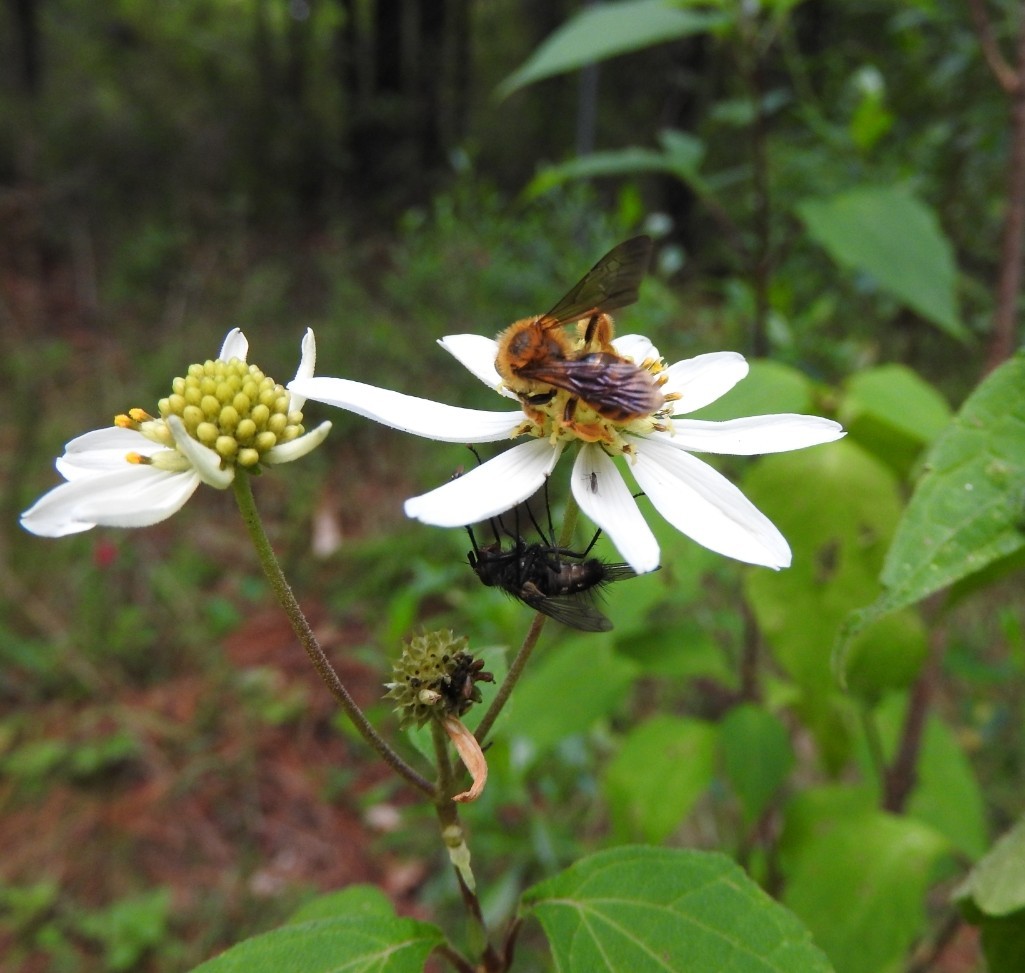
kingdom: Plantae
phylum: Tracheophyta
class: Magnoliopsida
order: Asterales
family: Asteraceae
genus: Montanoa
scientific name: Montanoa frutescens
